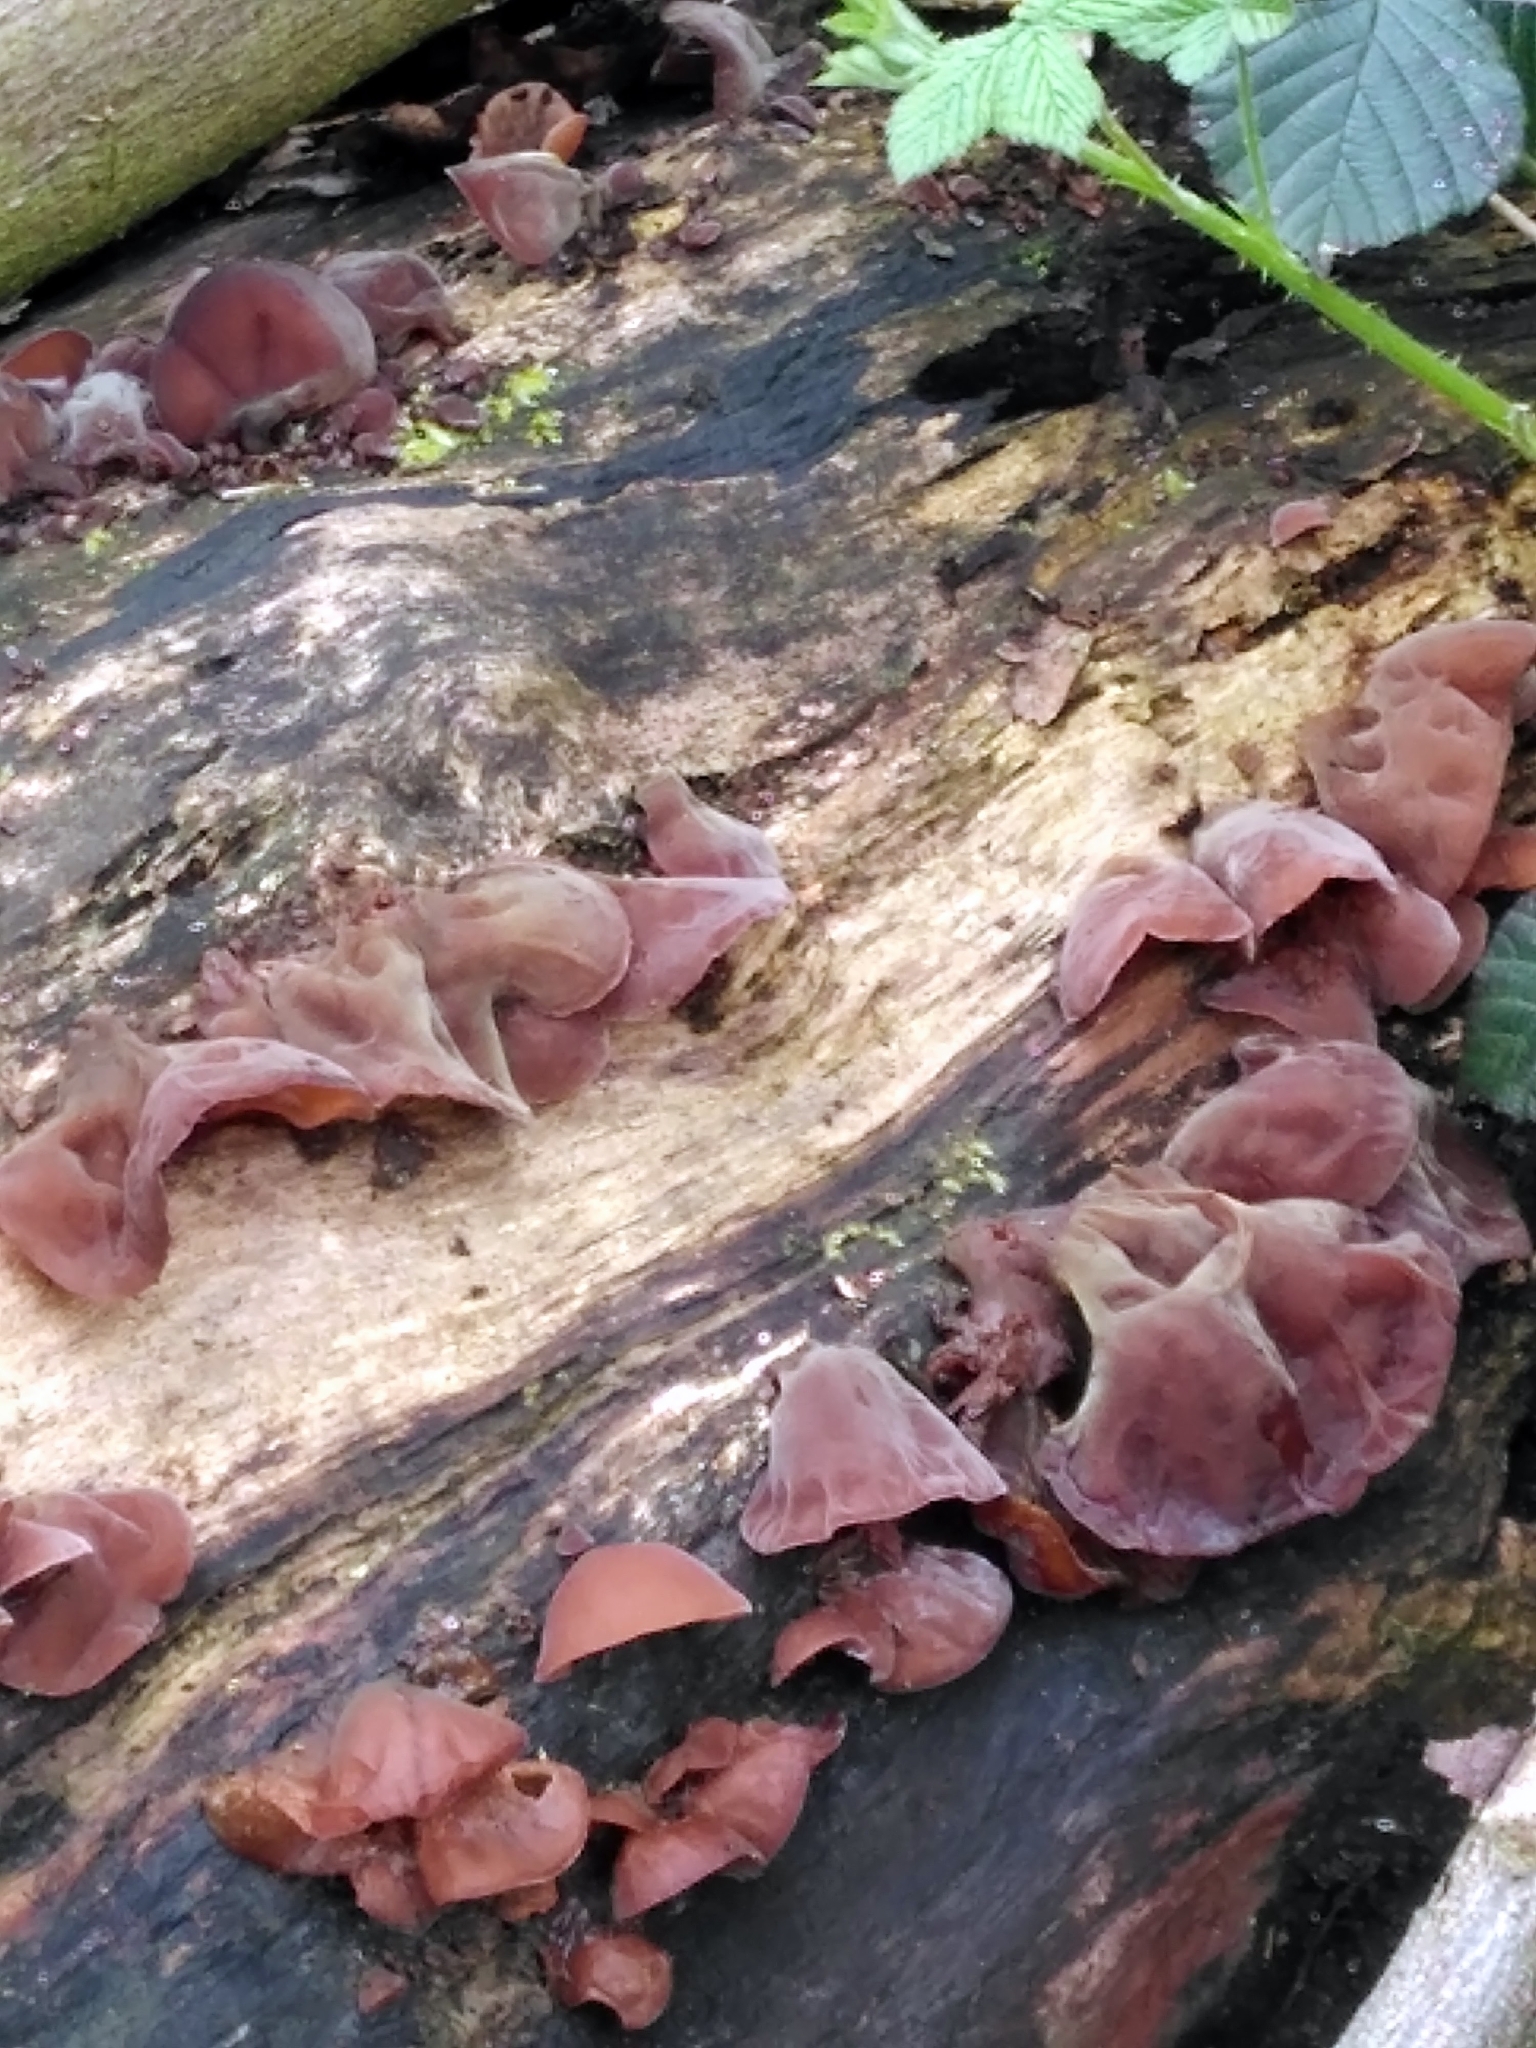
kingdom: Fungi
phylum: Basidiomycota
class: Agaricomycetes
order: Auriculariales
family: Auriculariaceae
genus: Auricularia
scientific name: Auricularia auricula-judae
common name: Jelly ear
